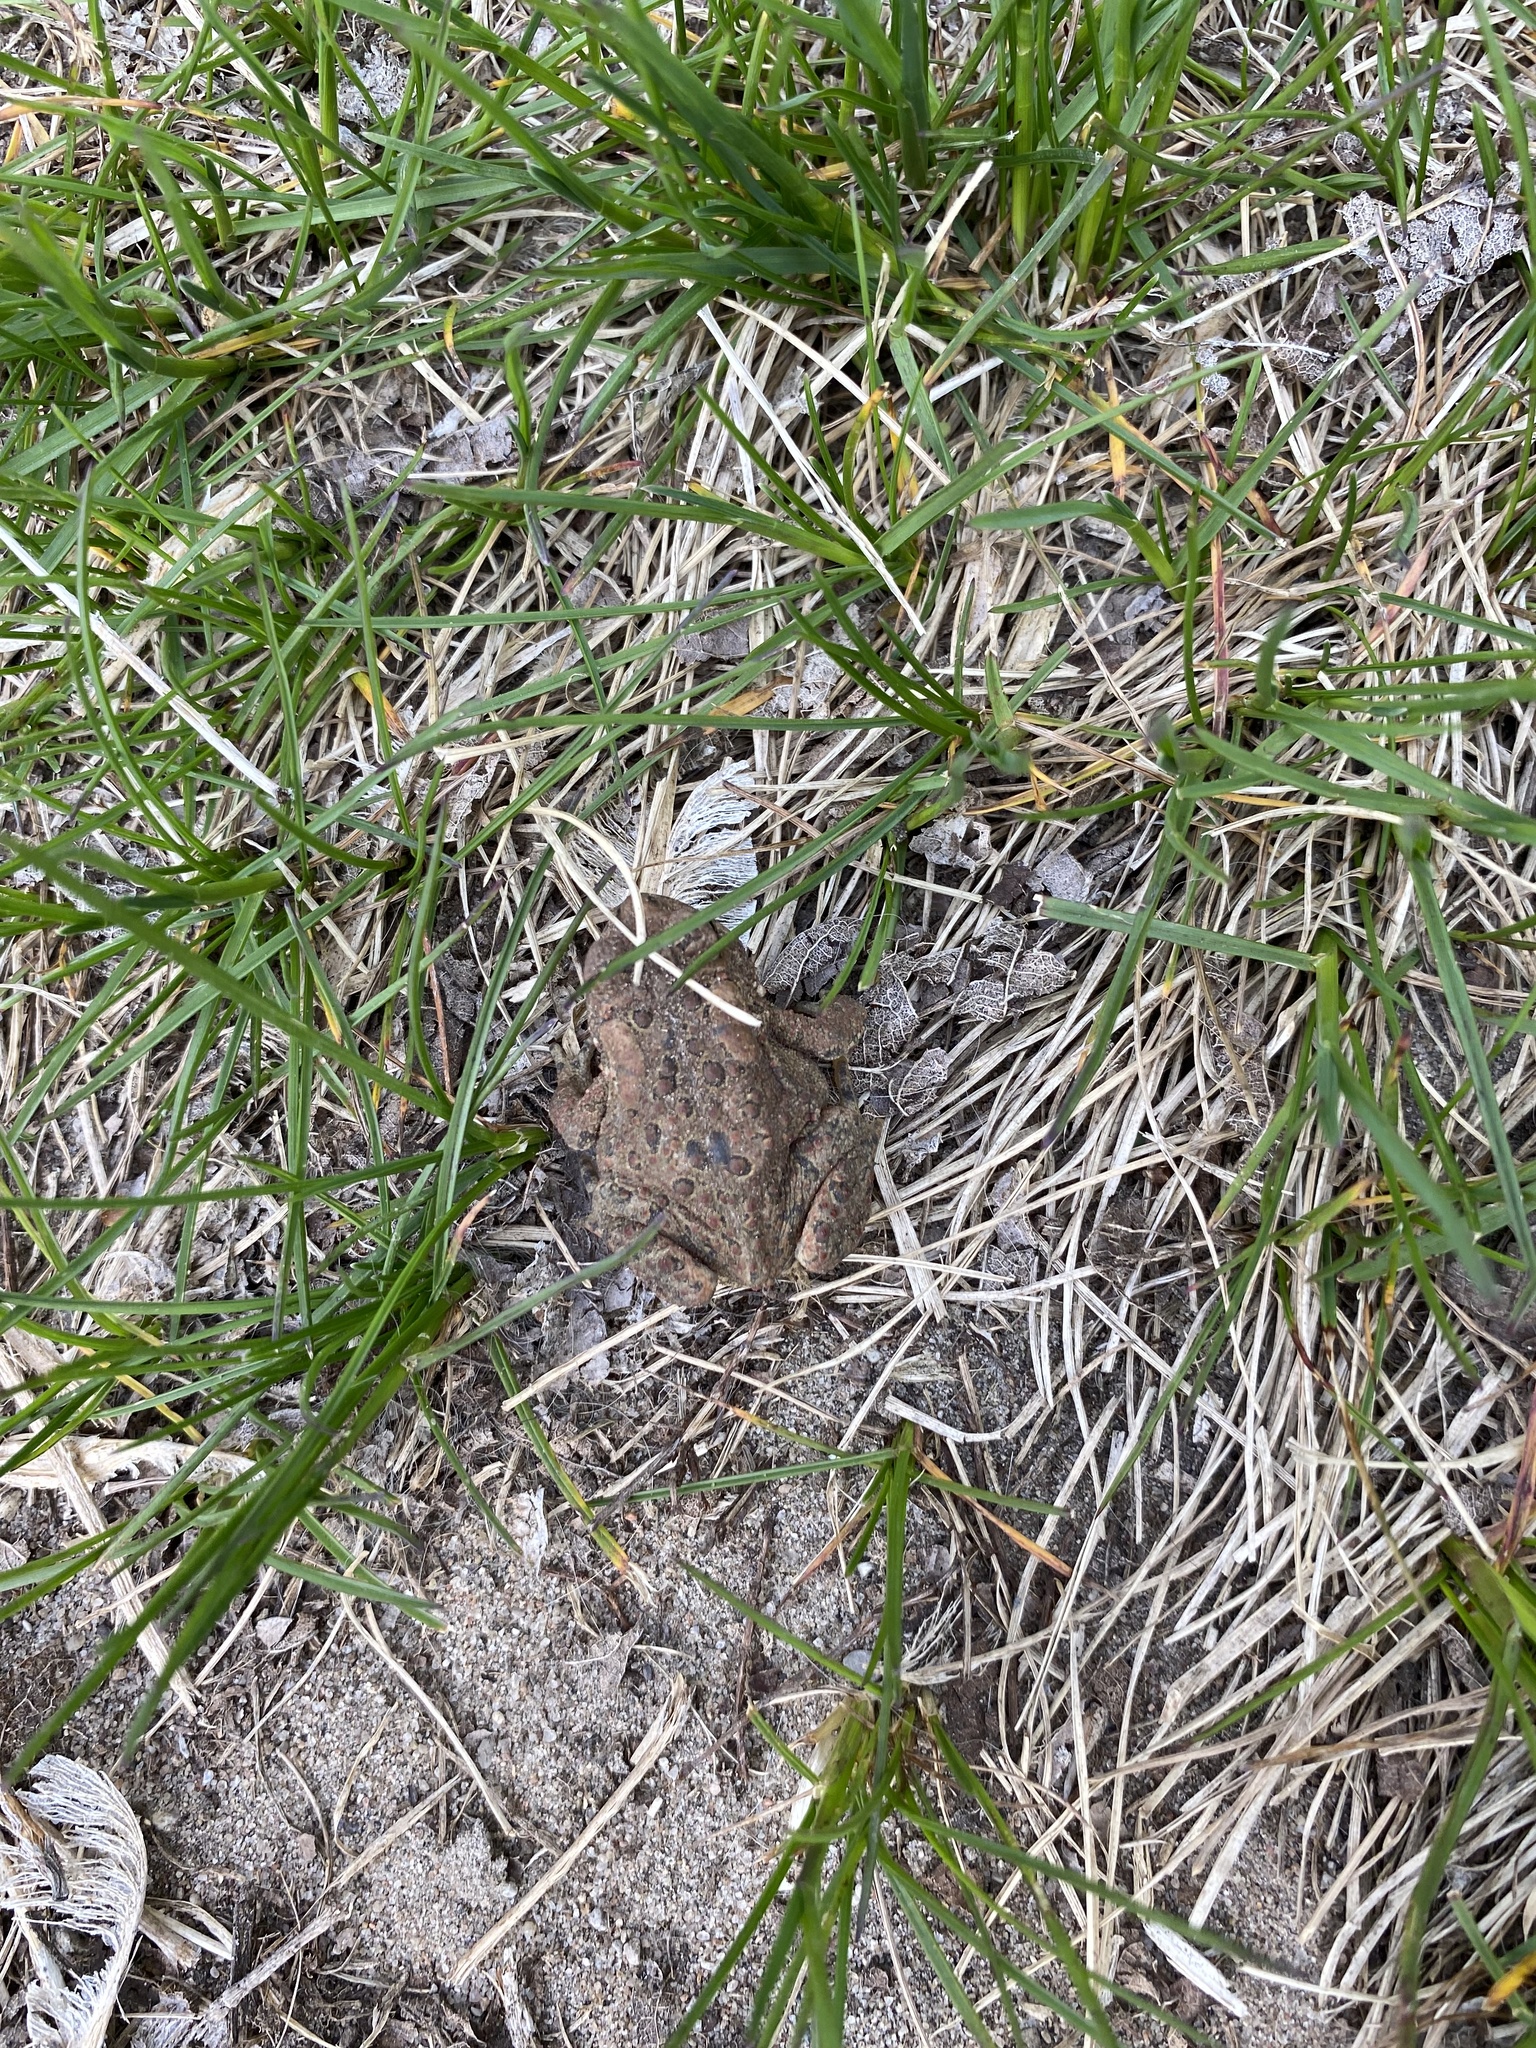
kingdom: Animalia
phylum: Chordata
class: Amphibia
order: Anura
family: Bufonidae
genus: Anaxyrus
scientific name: Anaxyrus americanus
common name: American toad
